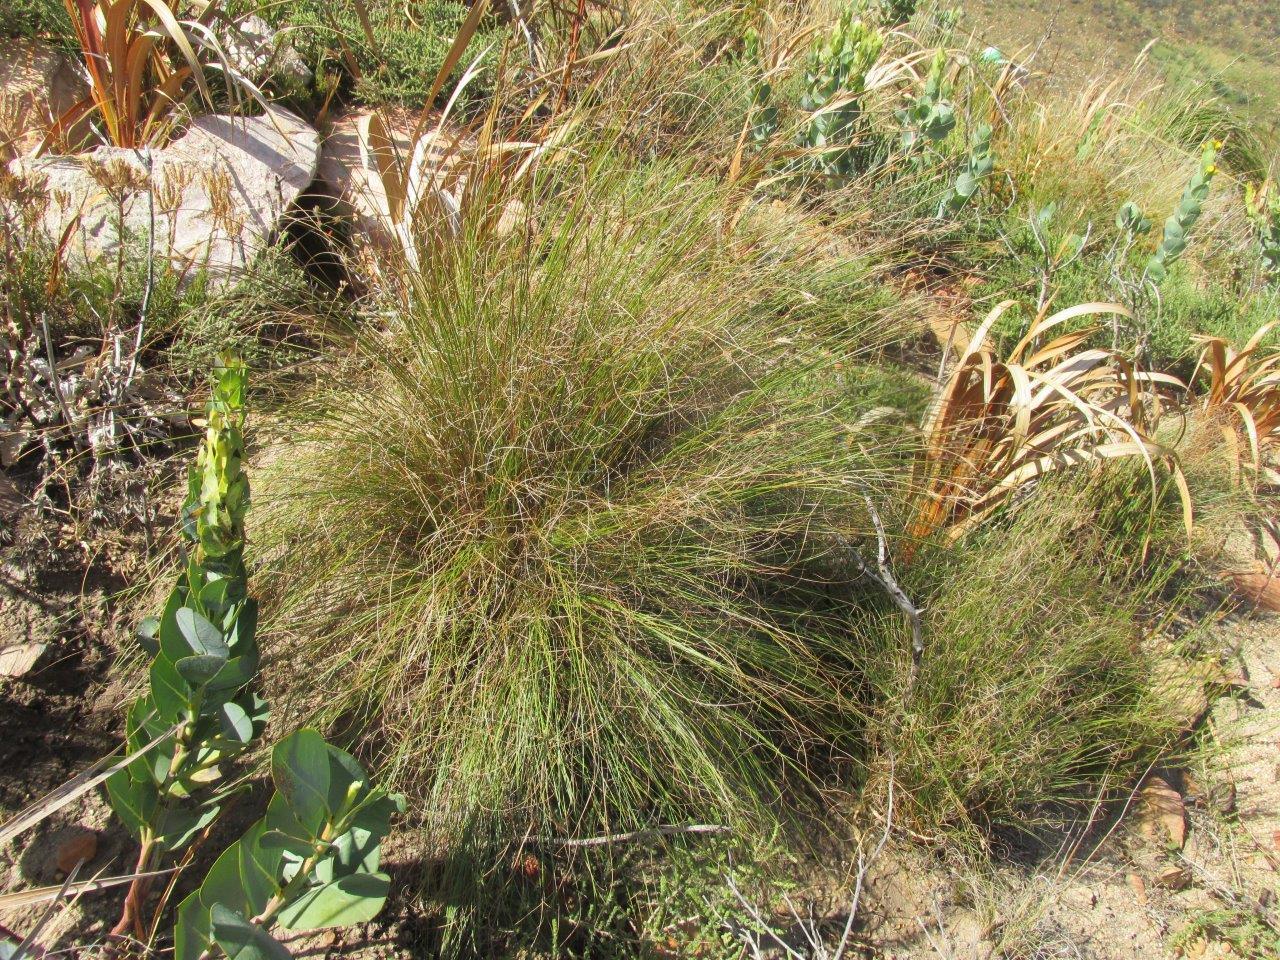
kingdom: Plantae
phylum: Tracheophyta
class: Liliopsida
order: Poales
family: Cyperaceae
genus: Schoenus
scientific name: Schoenus graminifolius
